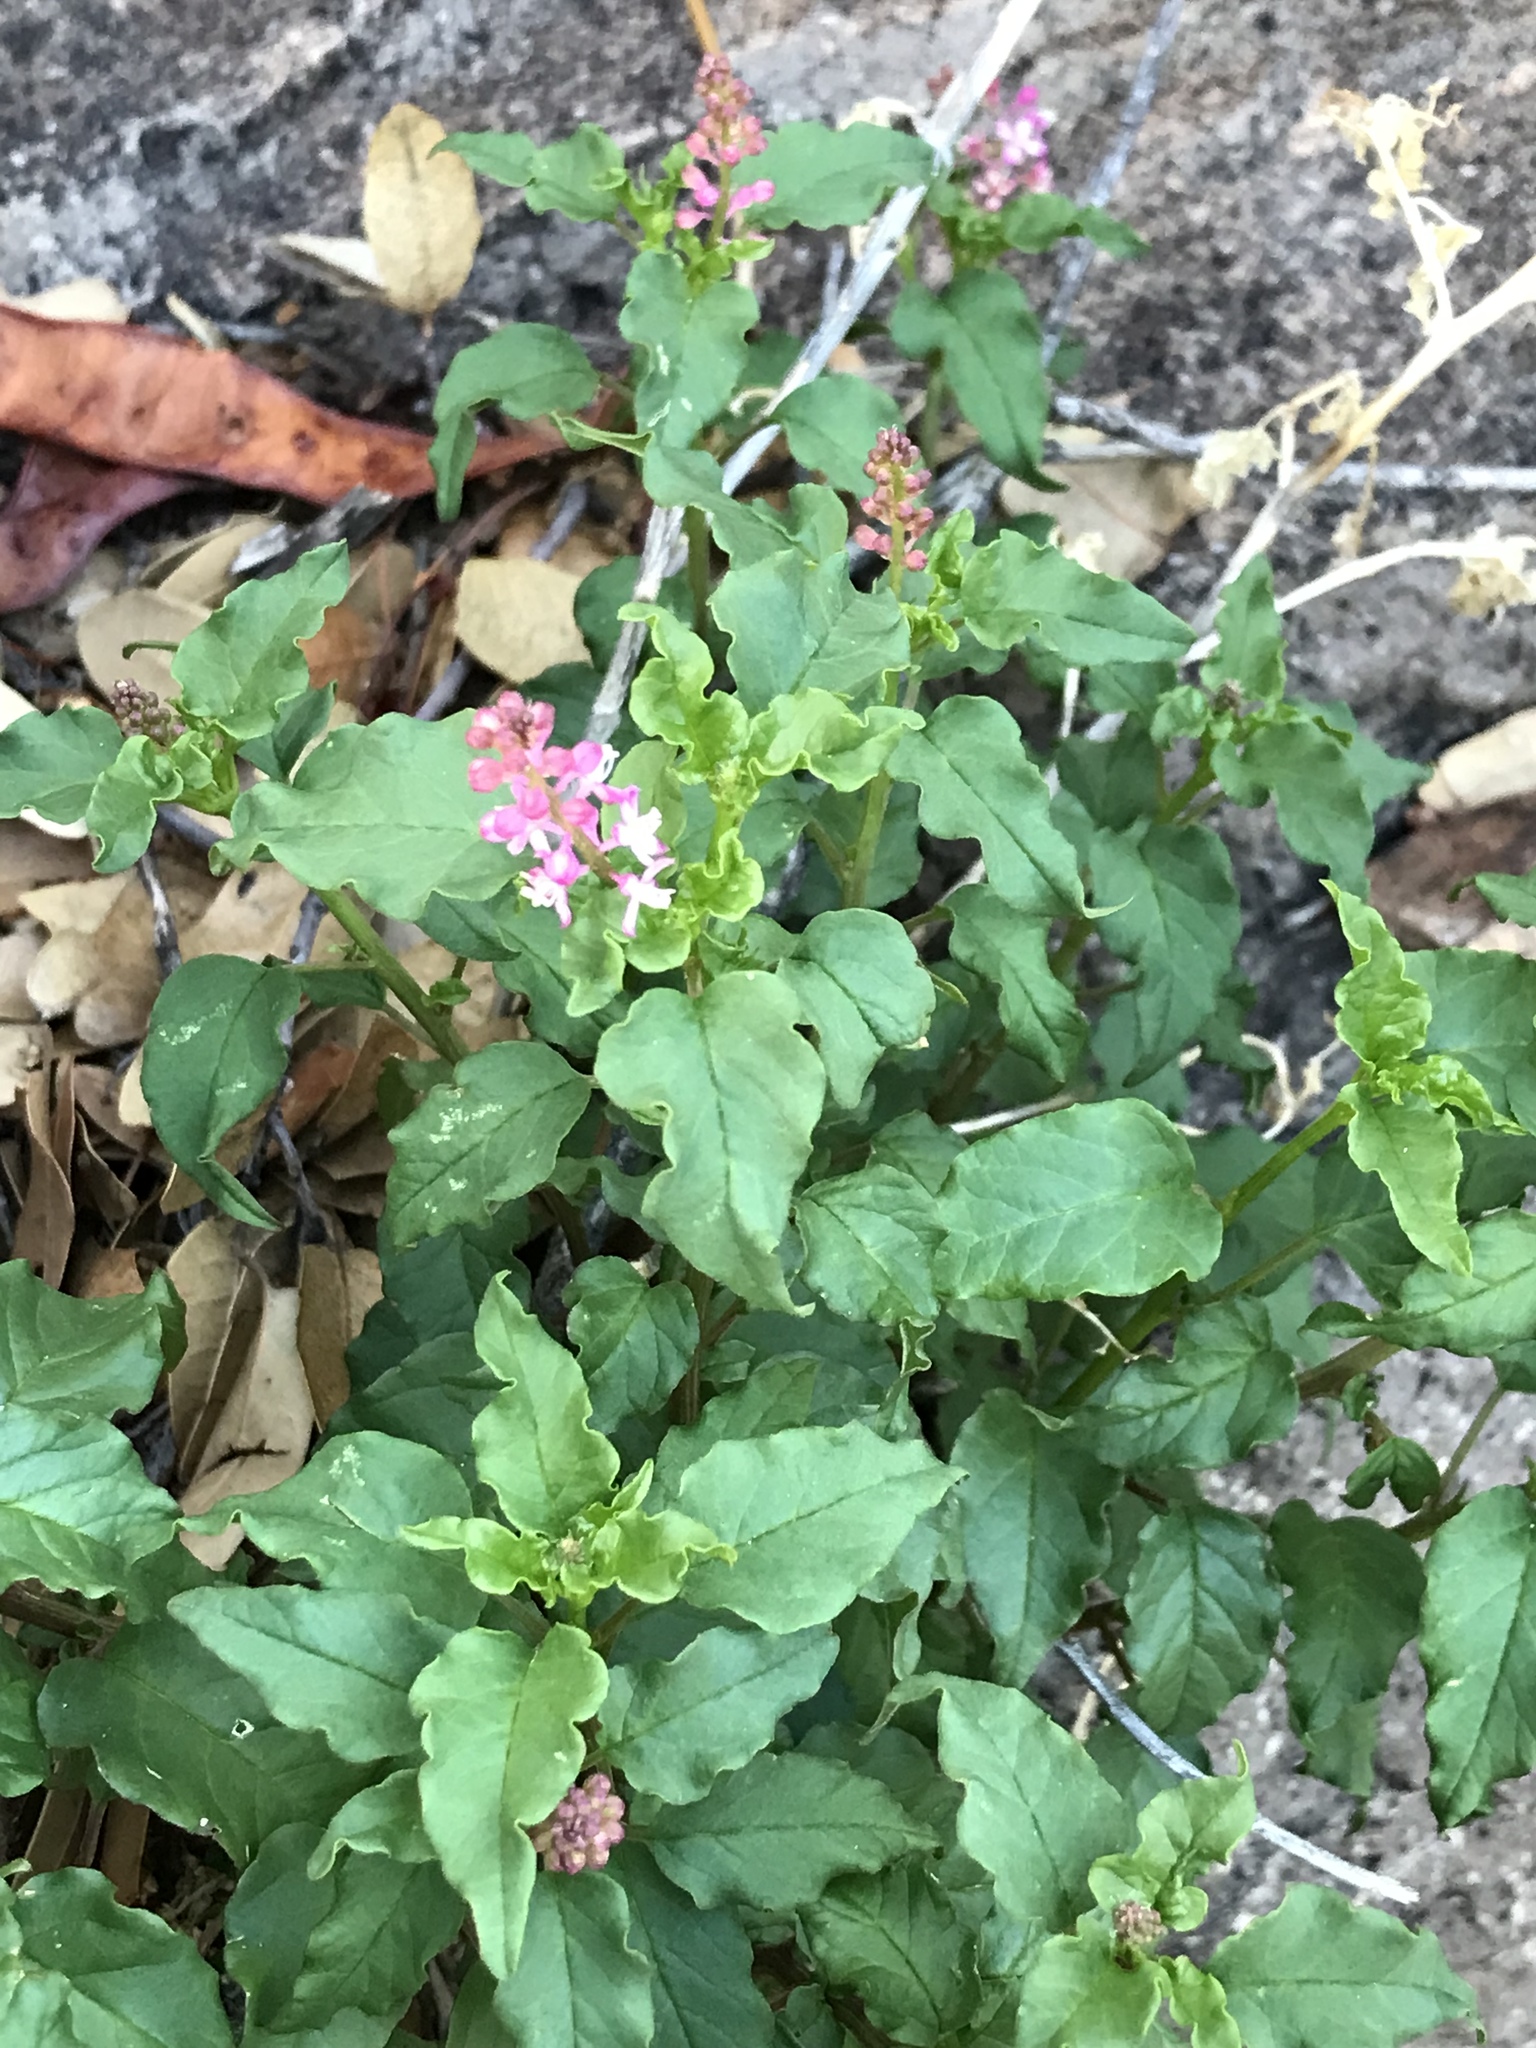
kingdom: Plantae
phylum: Tracheophyta
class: Magnoliopsida
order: Caryophyllales
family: Phytolaccaceae
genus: Rivina
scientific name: Rivina humilis
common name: Rougeplant
